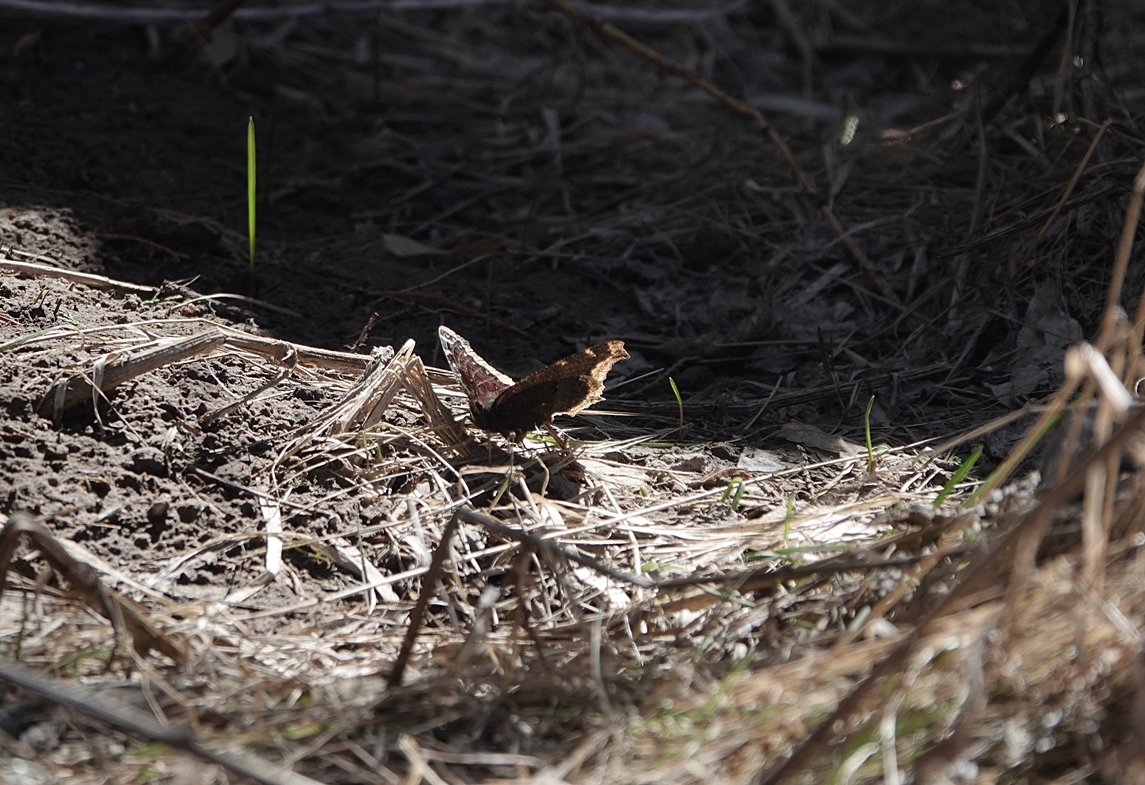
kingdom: Animalia
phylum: Arthropoda
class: Insecta
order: Lepidoptera
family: Nymphalidae
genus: Nymphalis
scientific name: Nymphalis antiopa
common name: Camberwell beauty
